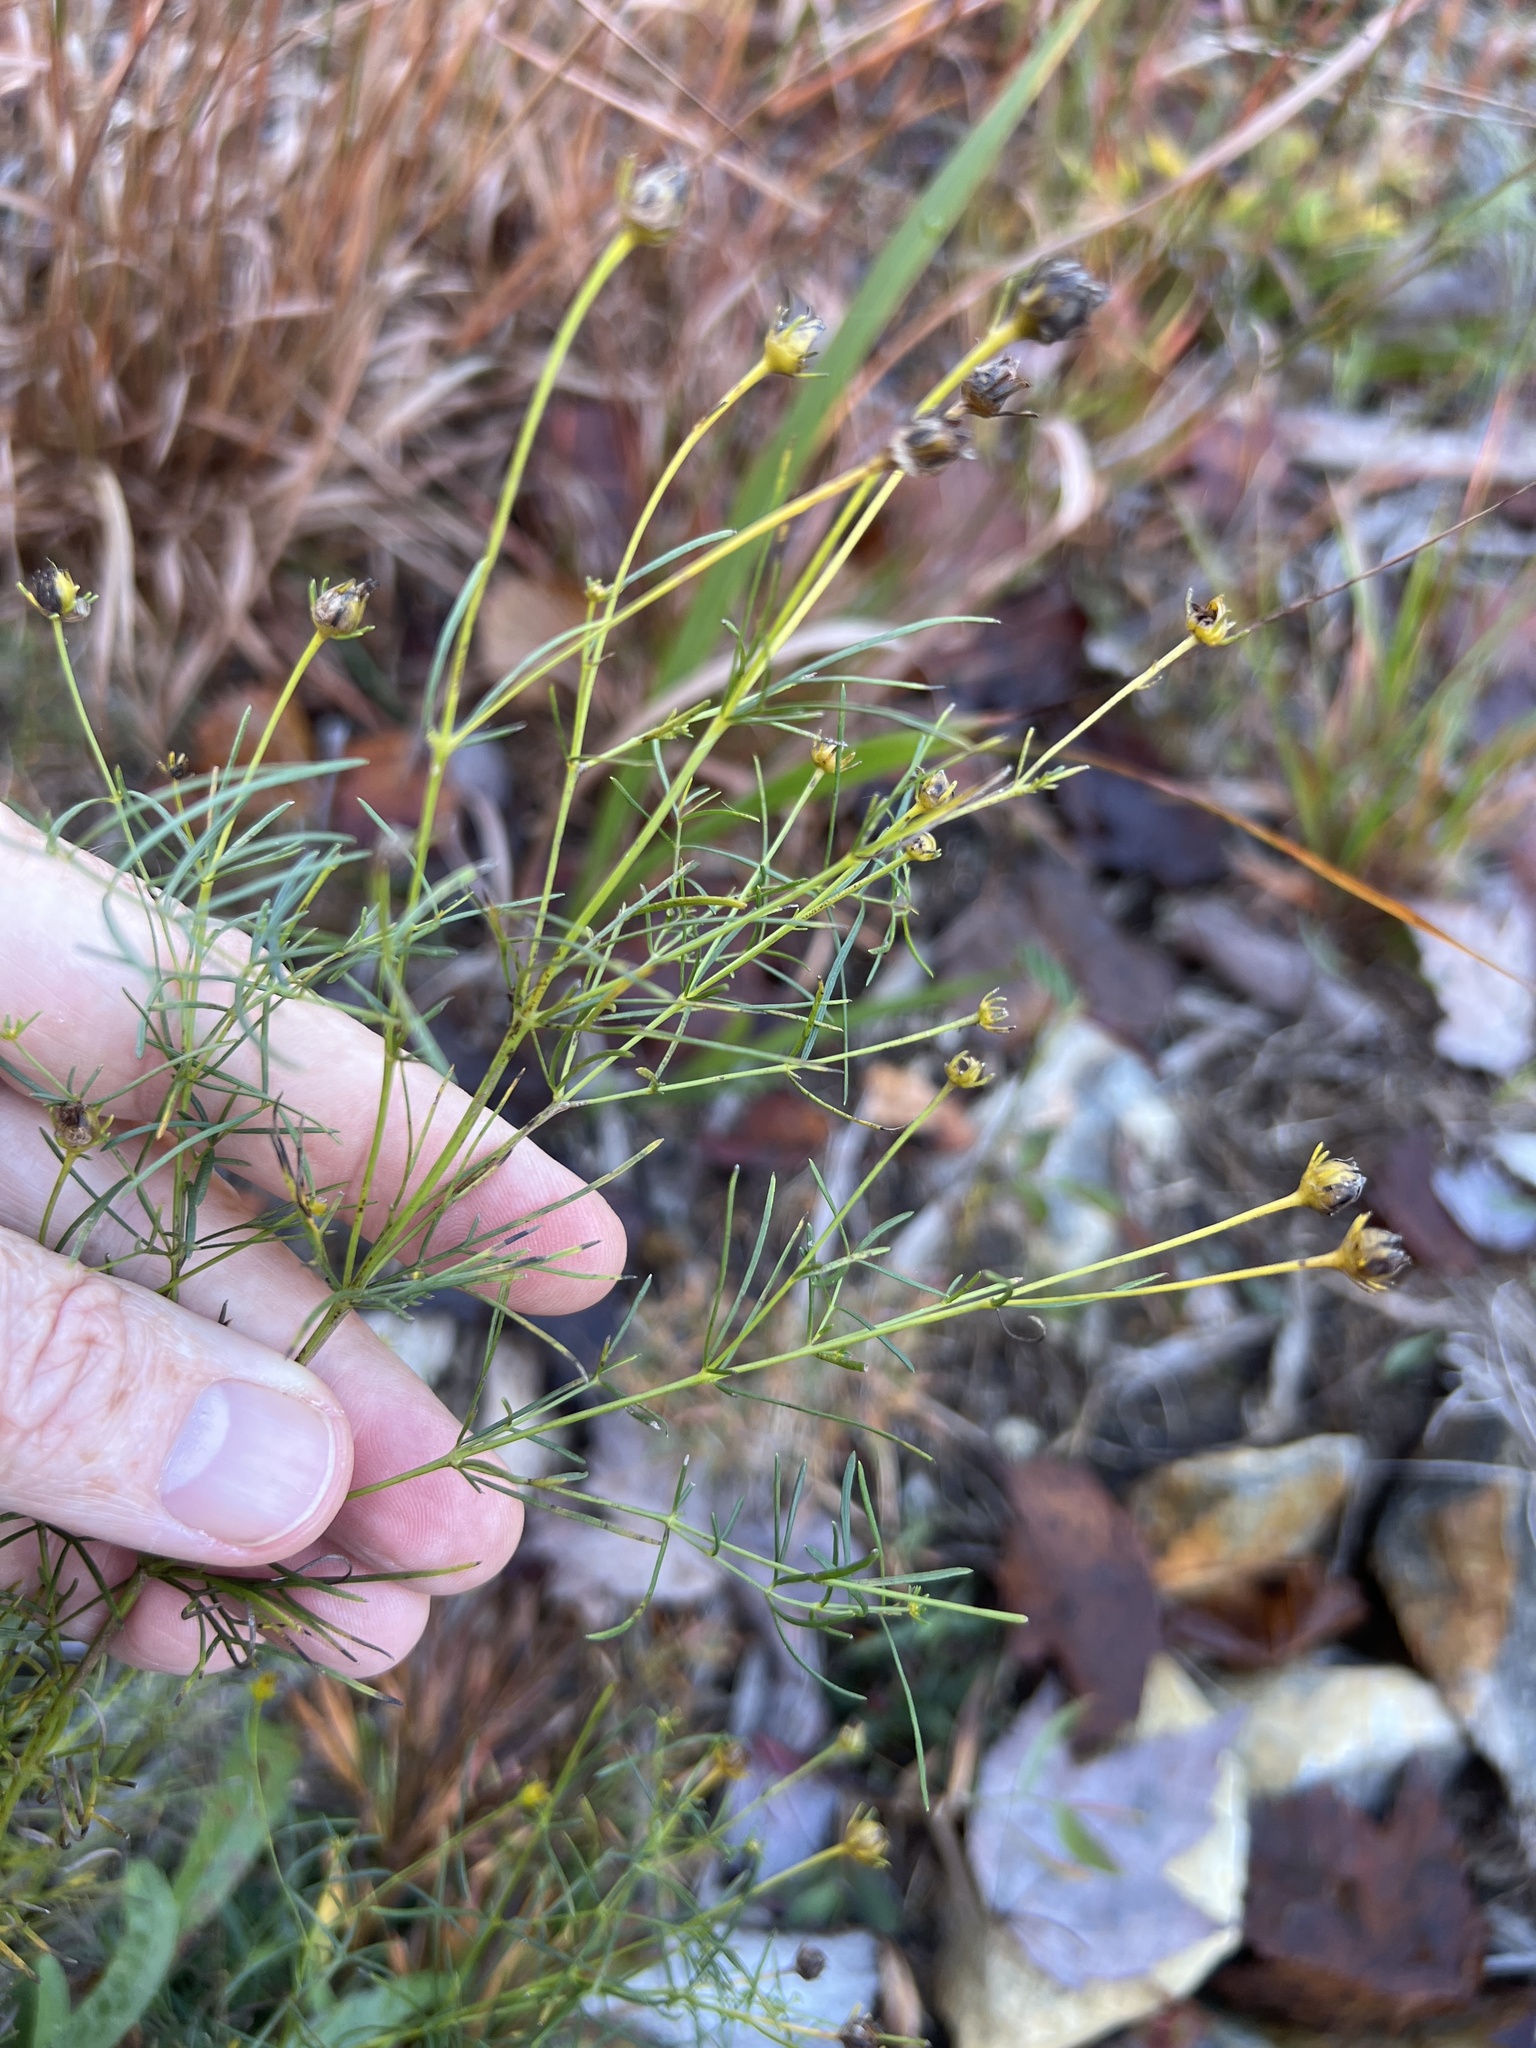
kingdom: Plantae
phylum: Tracheophyta
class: Magnoliopsida
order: Asterales
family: Asteraceae
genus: Coreopsis
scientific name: Coreopsis verticillata
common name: Whorled tickseed
